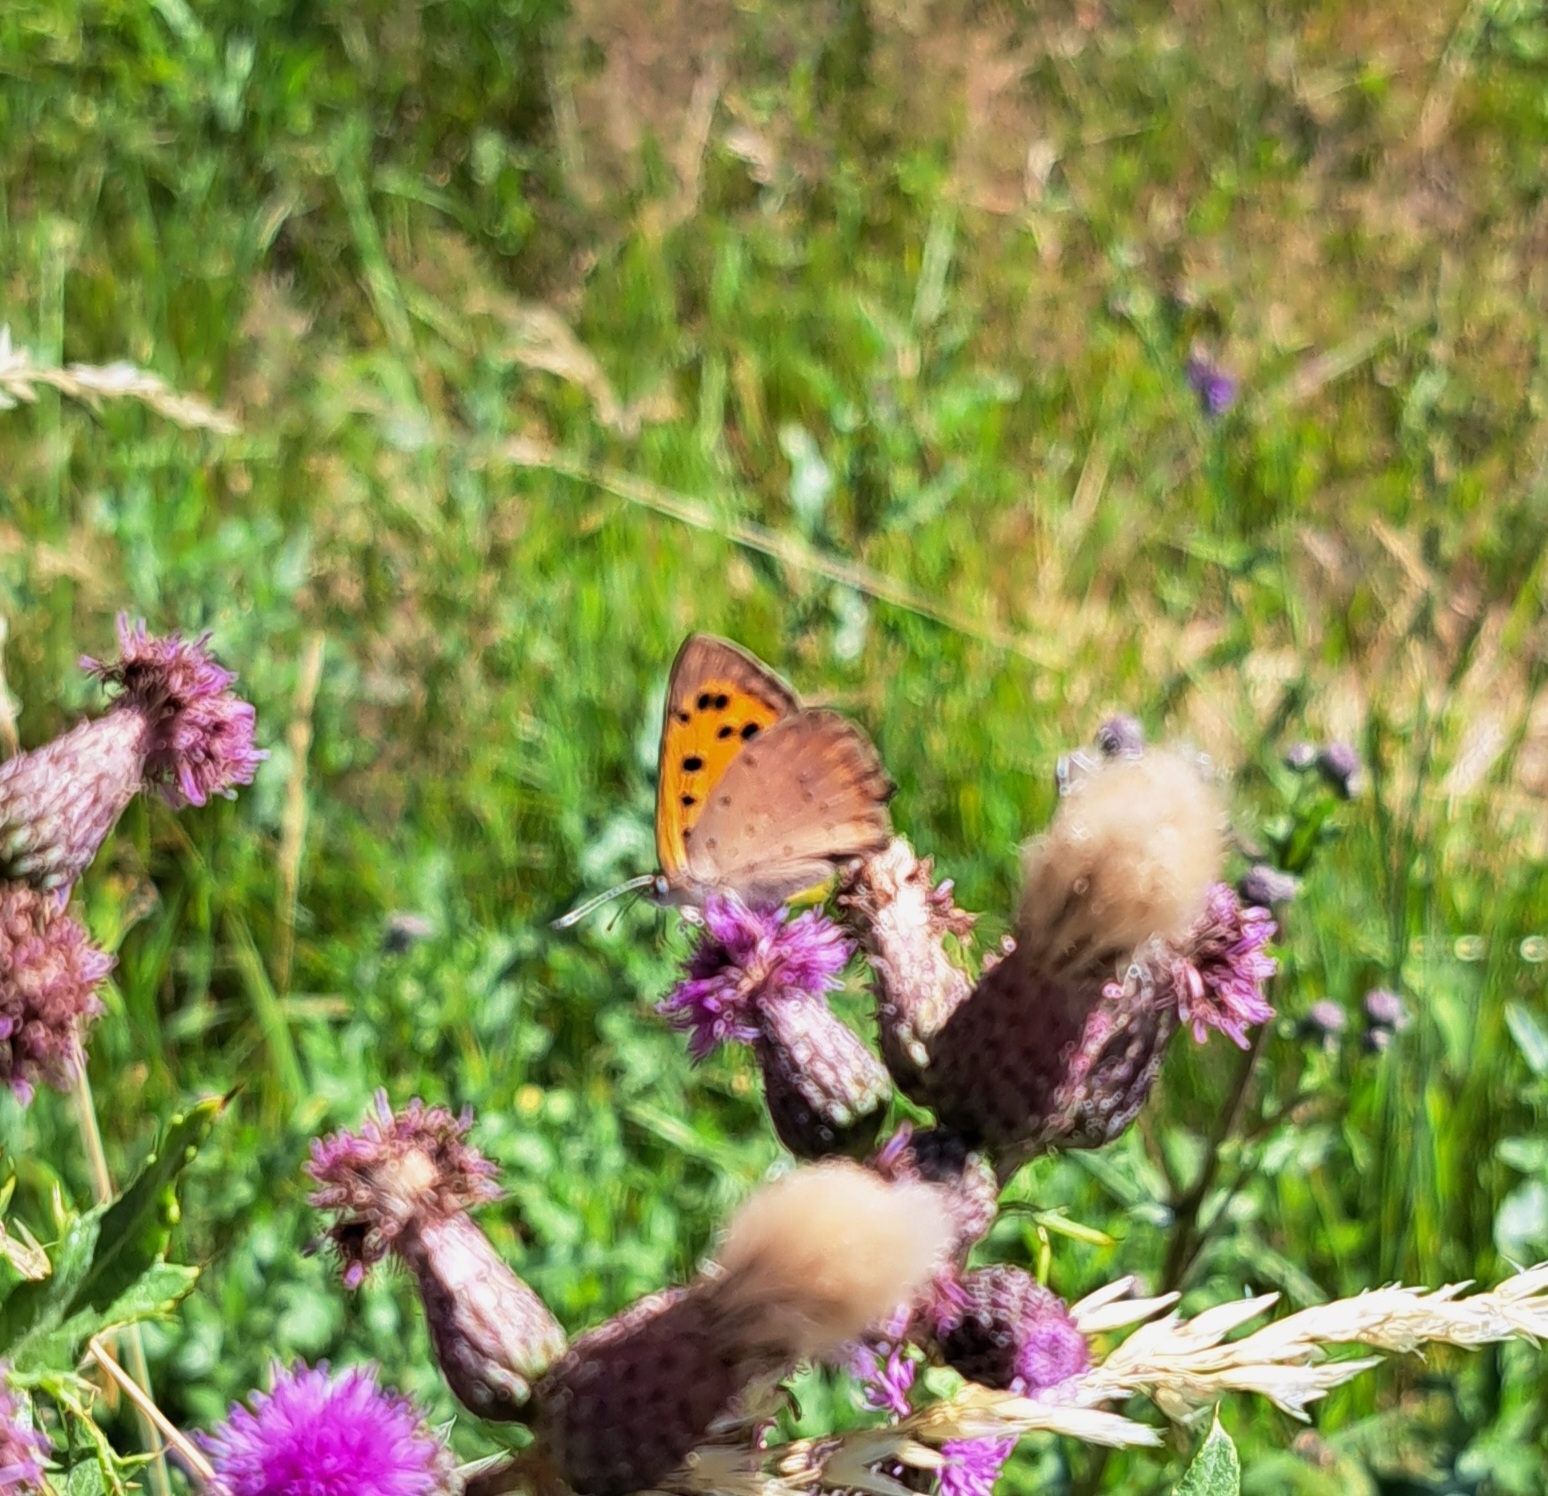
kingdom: Animalia
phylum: Arthropoda
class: Insecta
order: Lepidoptera
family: Lycaenidae
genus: Lycaena
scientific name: Lycaena phlaeas
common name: Small copper
